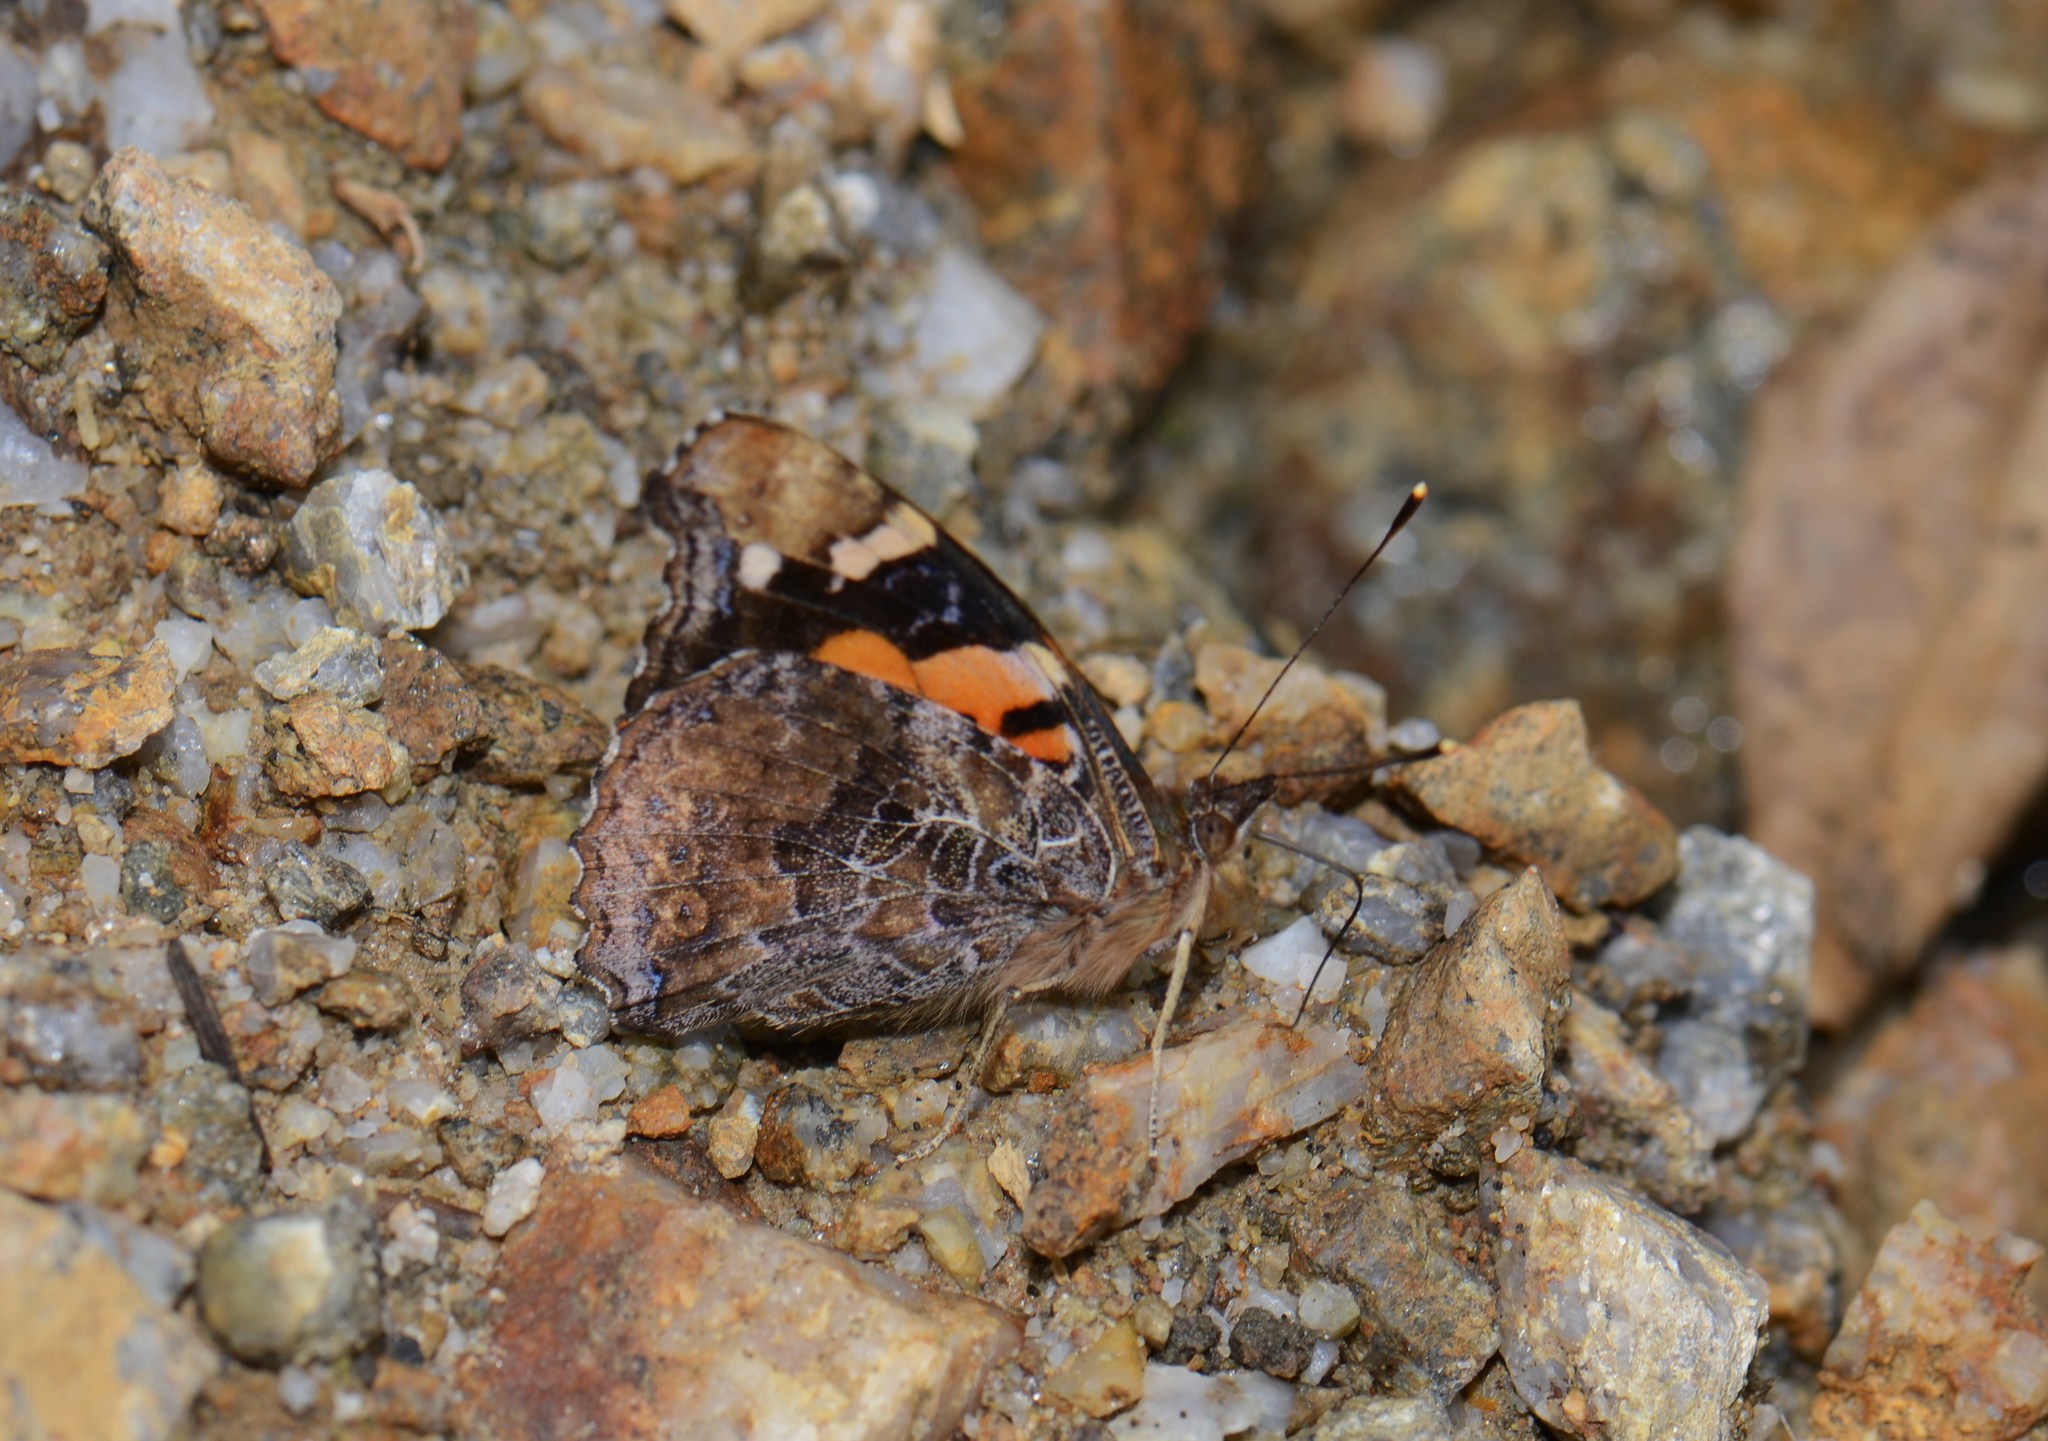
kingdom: Animalia
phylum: Arthropoda
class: Insecta
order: Lepidoptera
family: Nymphalidae
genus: Vanessa
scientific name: Vanessa samani
